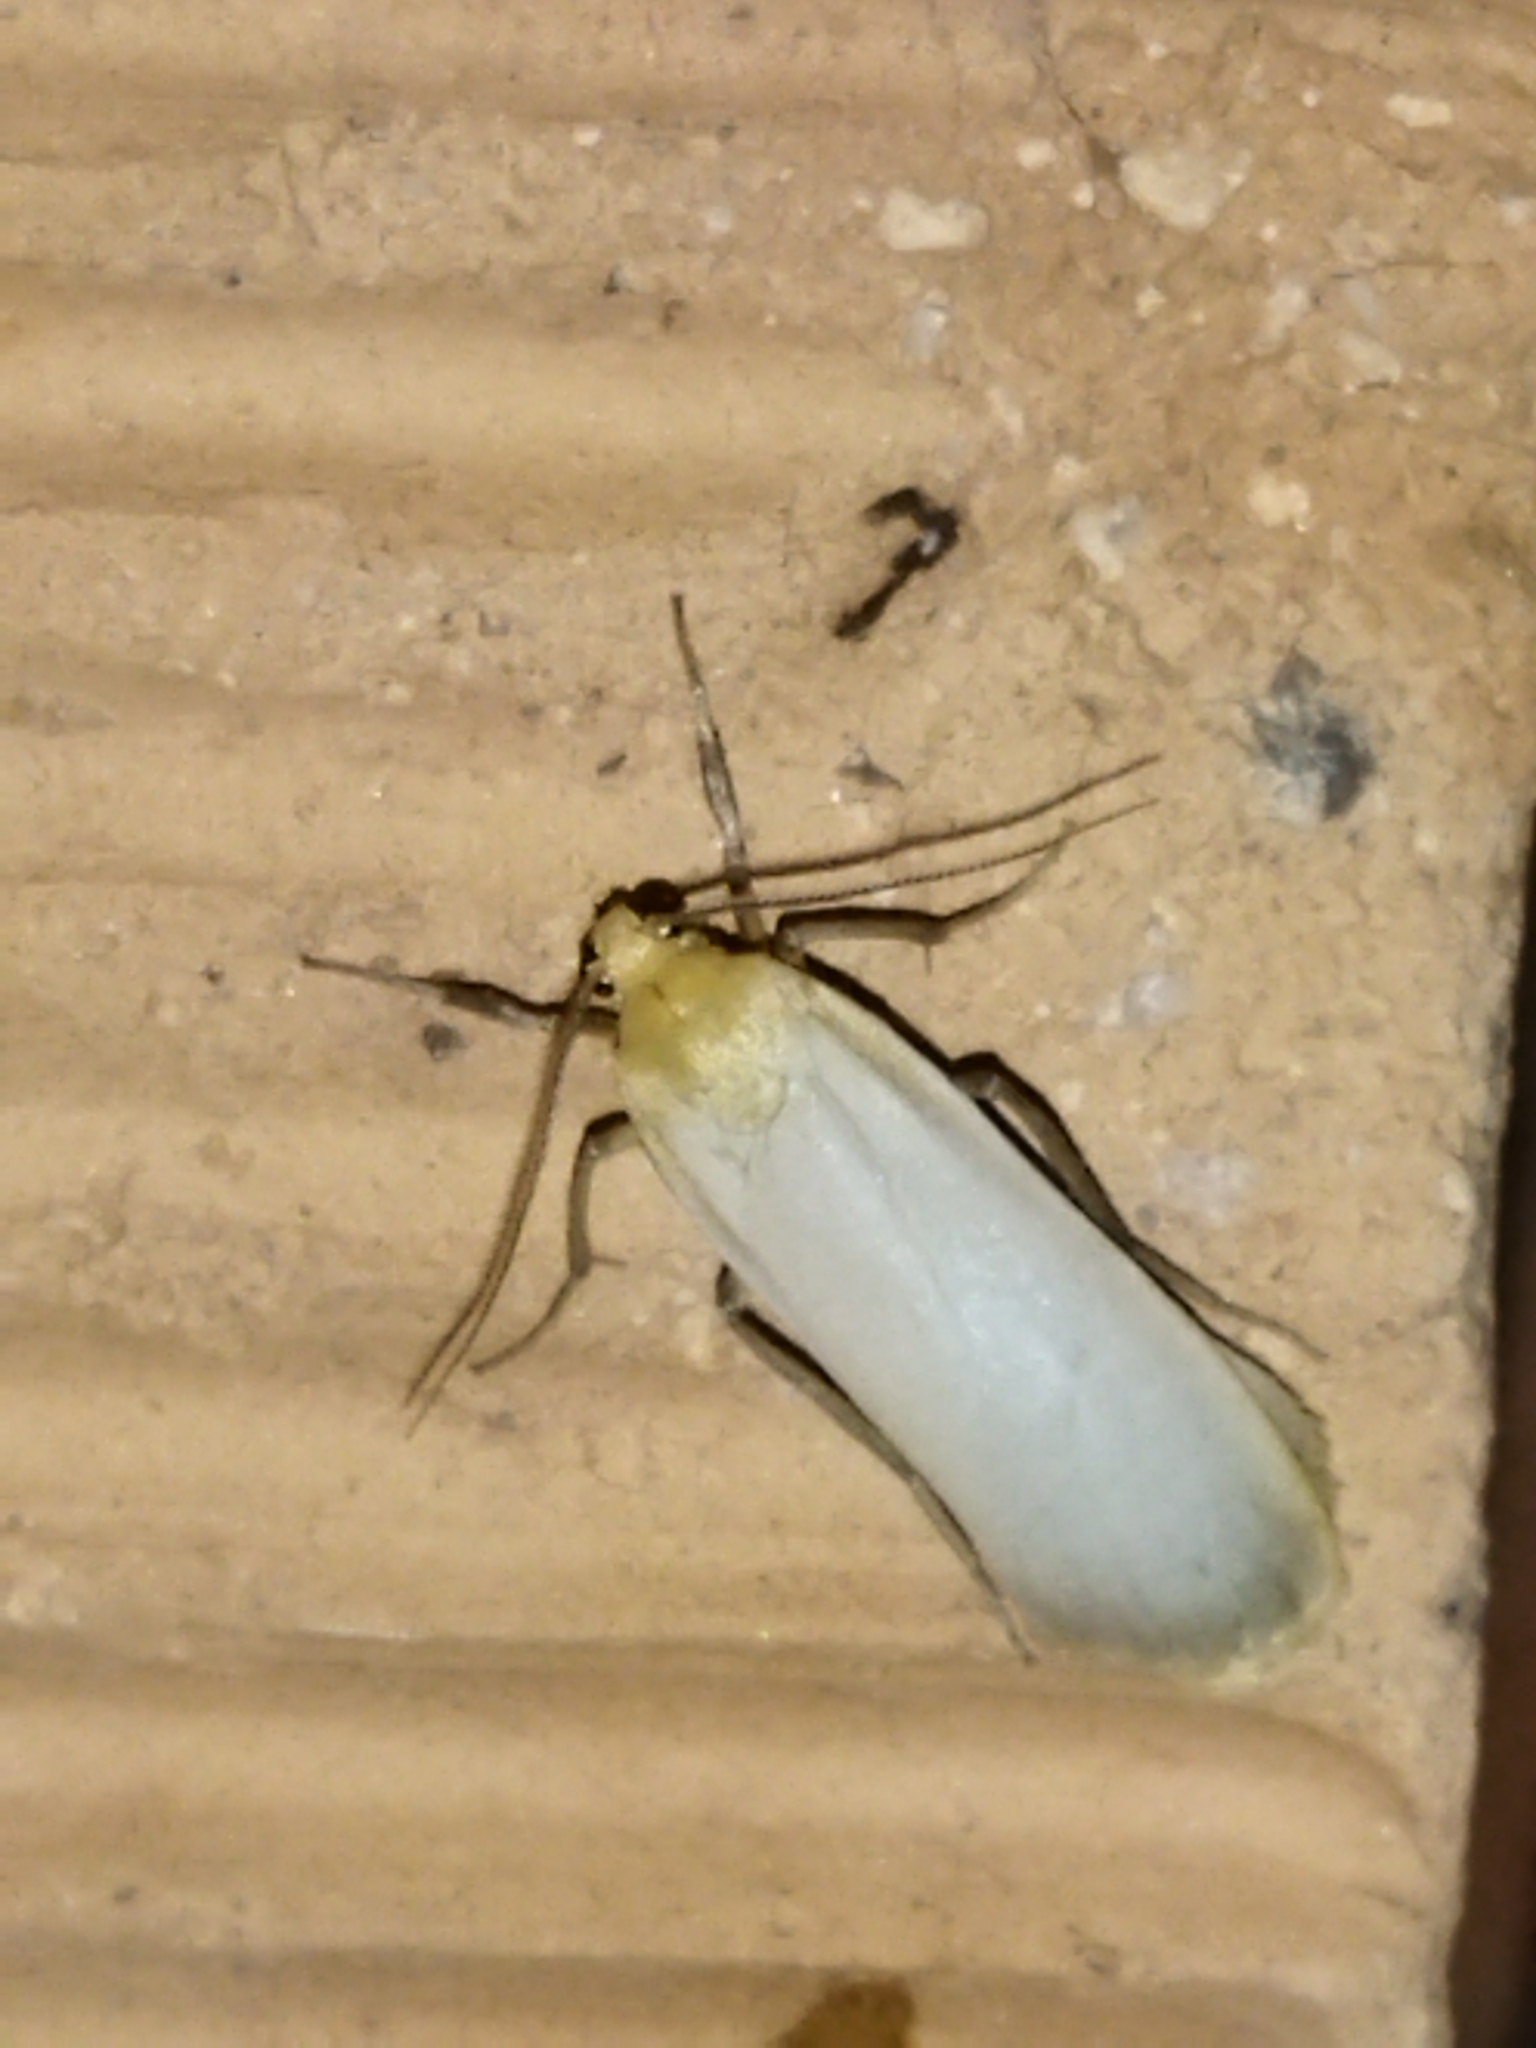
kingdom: Animalia
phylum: Arthropoda
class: Insecta
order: Lepidoptera
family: Erebidae
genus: Katha
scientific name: Katha depressa
